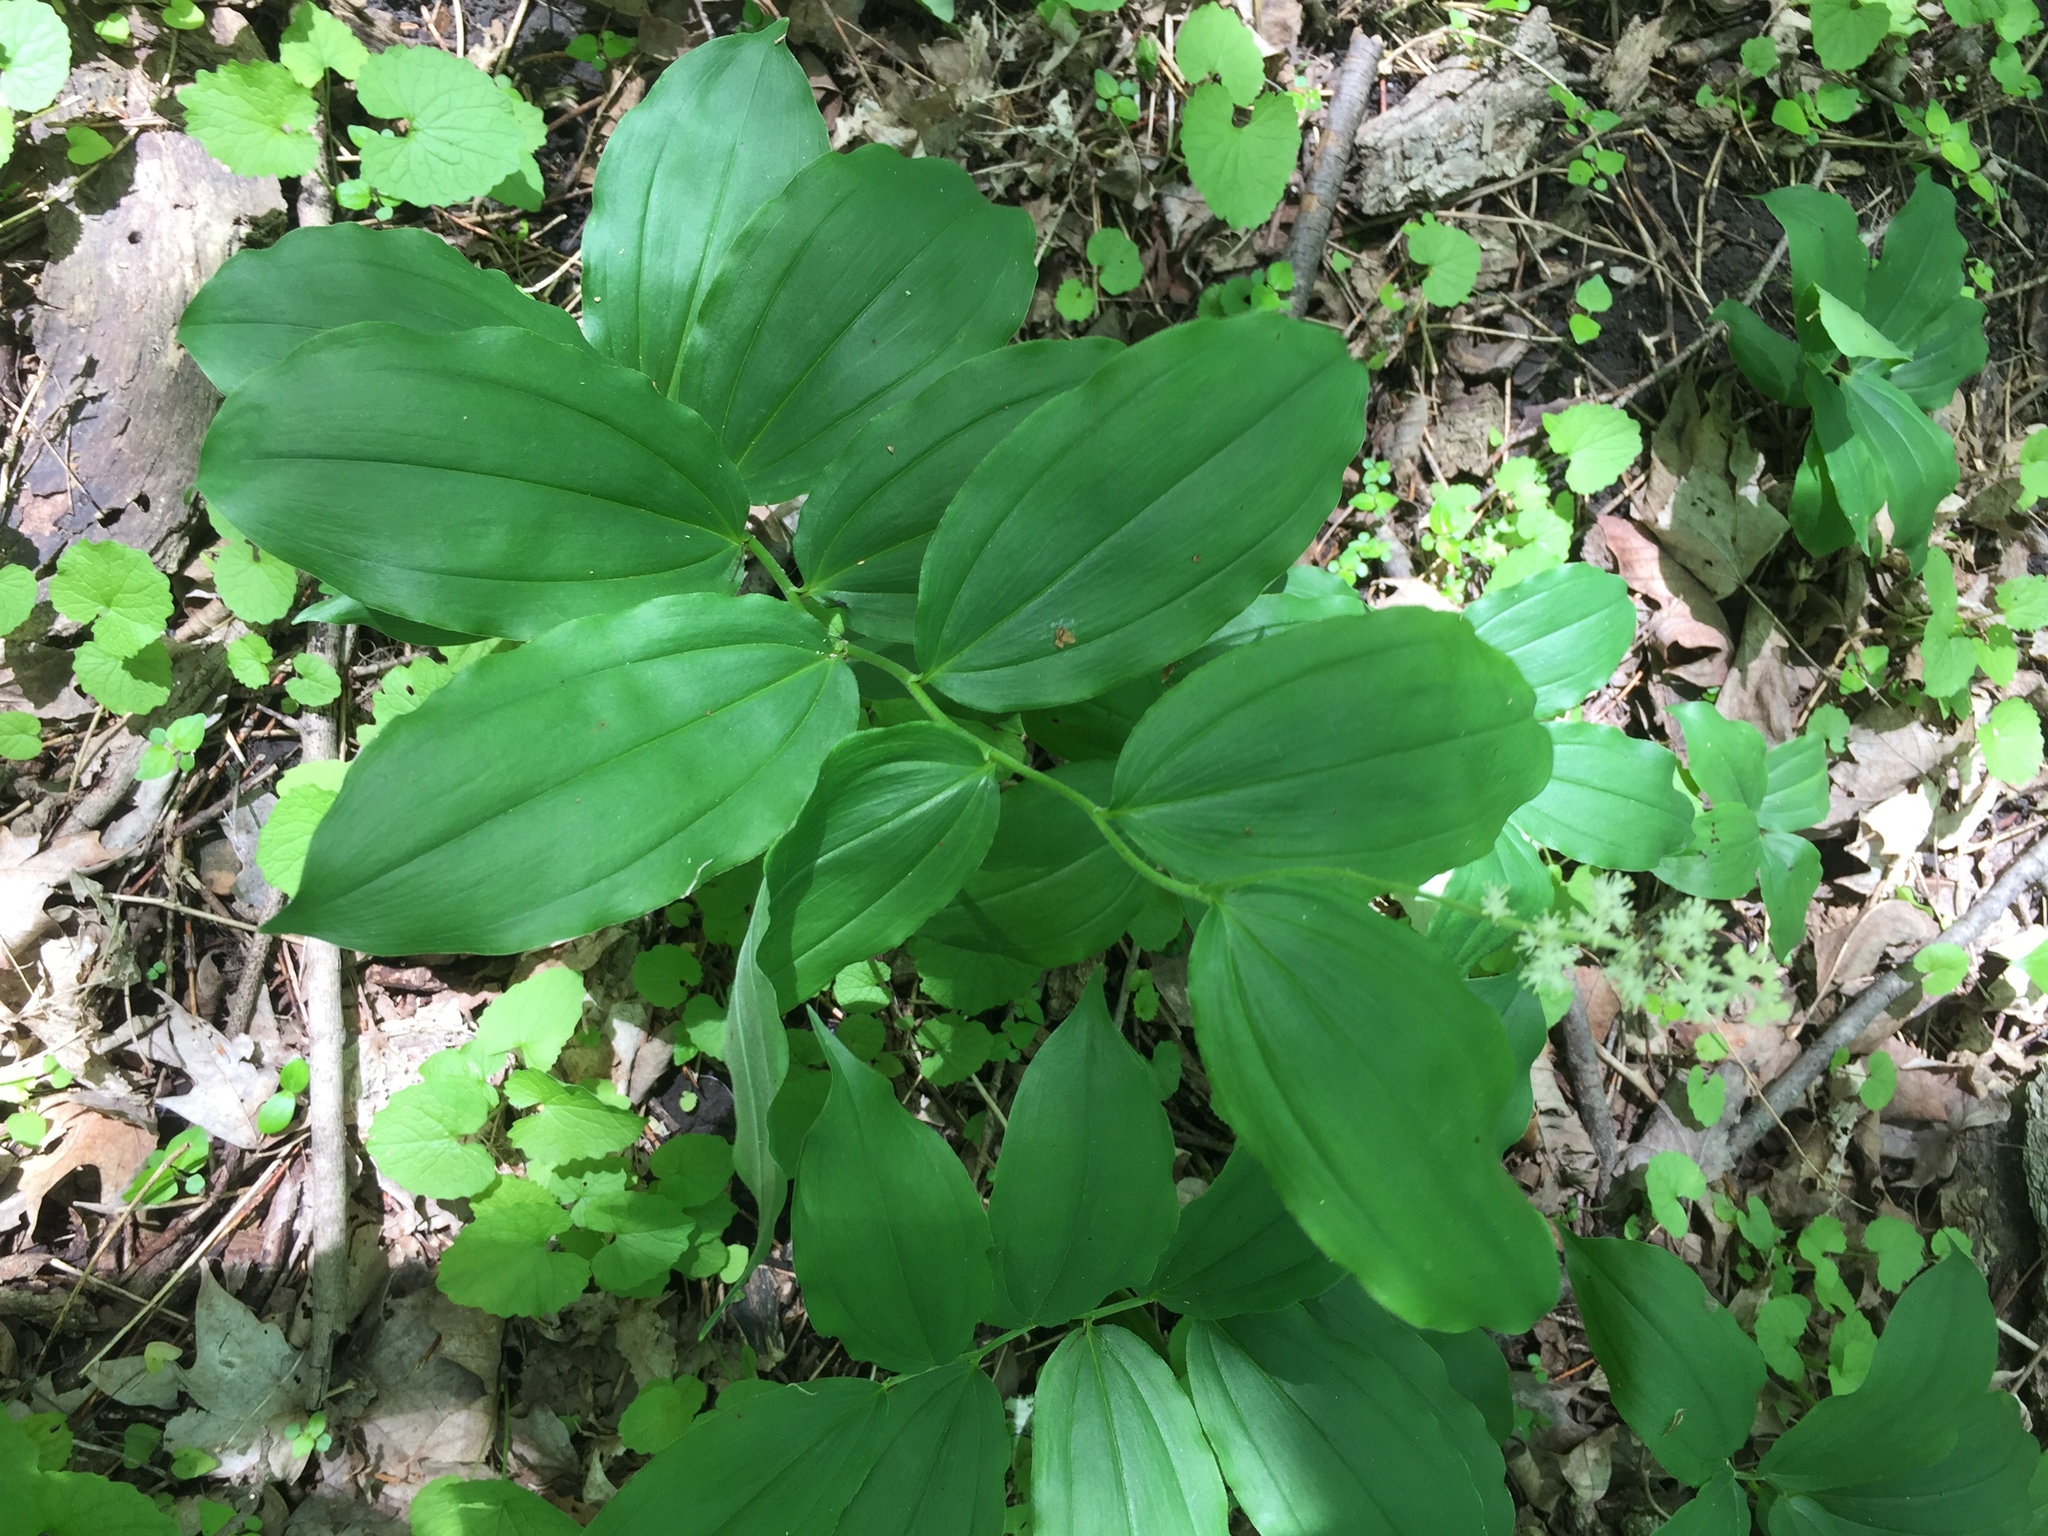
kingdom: Plantae
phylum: Tracheophyta
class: Liliopsida
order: Asparagales
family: Asparagaceae
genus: Maianthemum
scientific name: Maianthemum racemosum
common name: False spikenard
